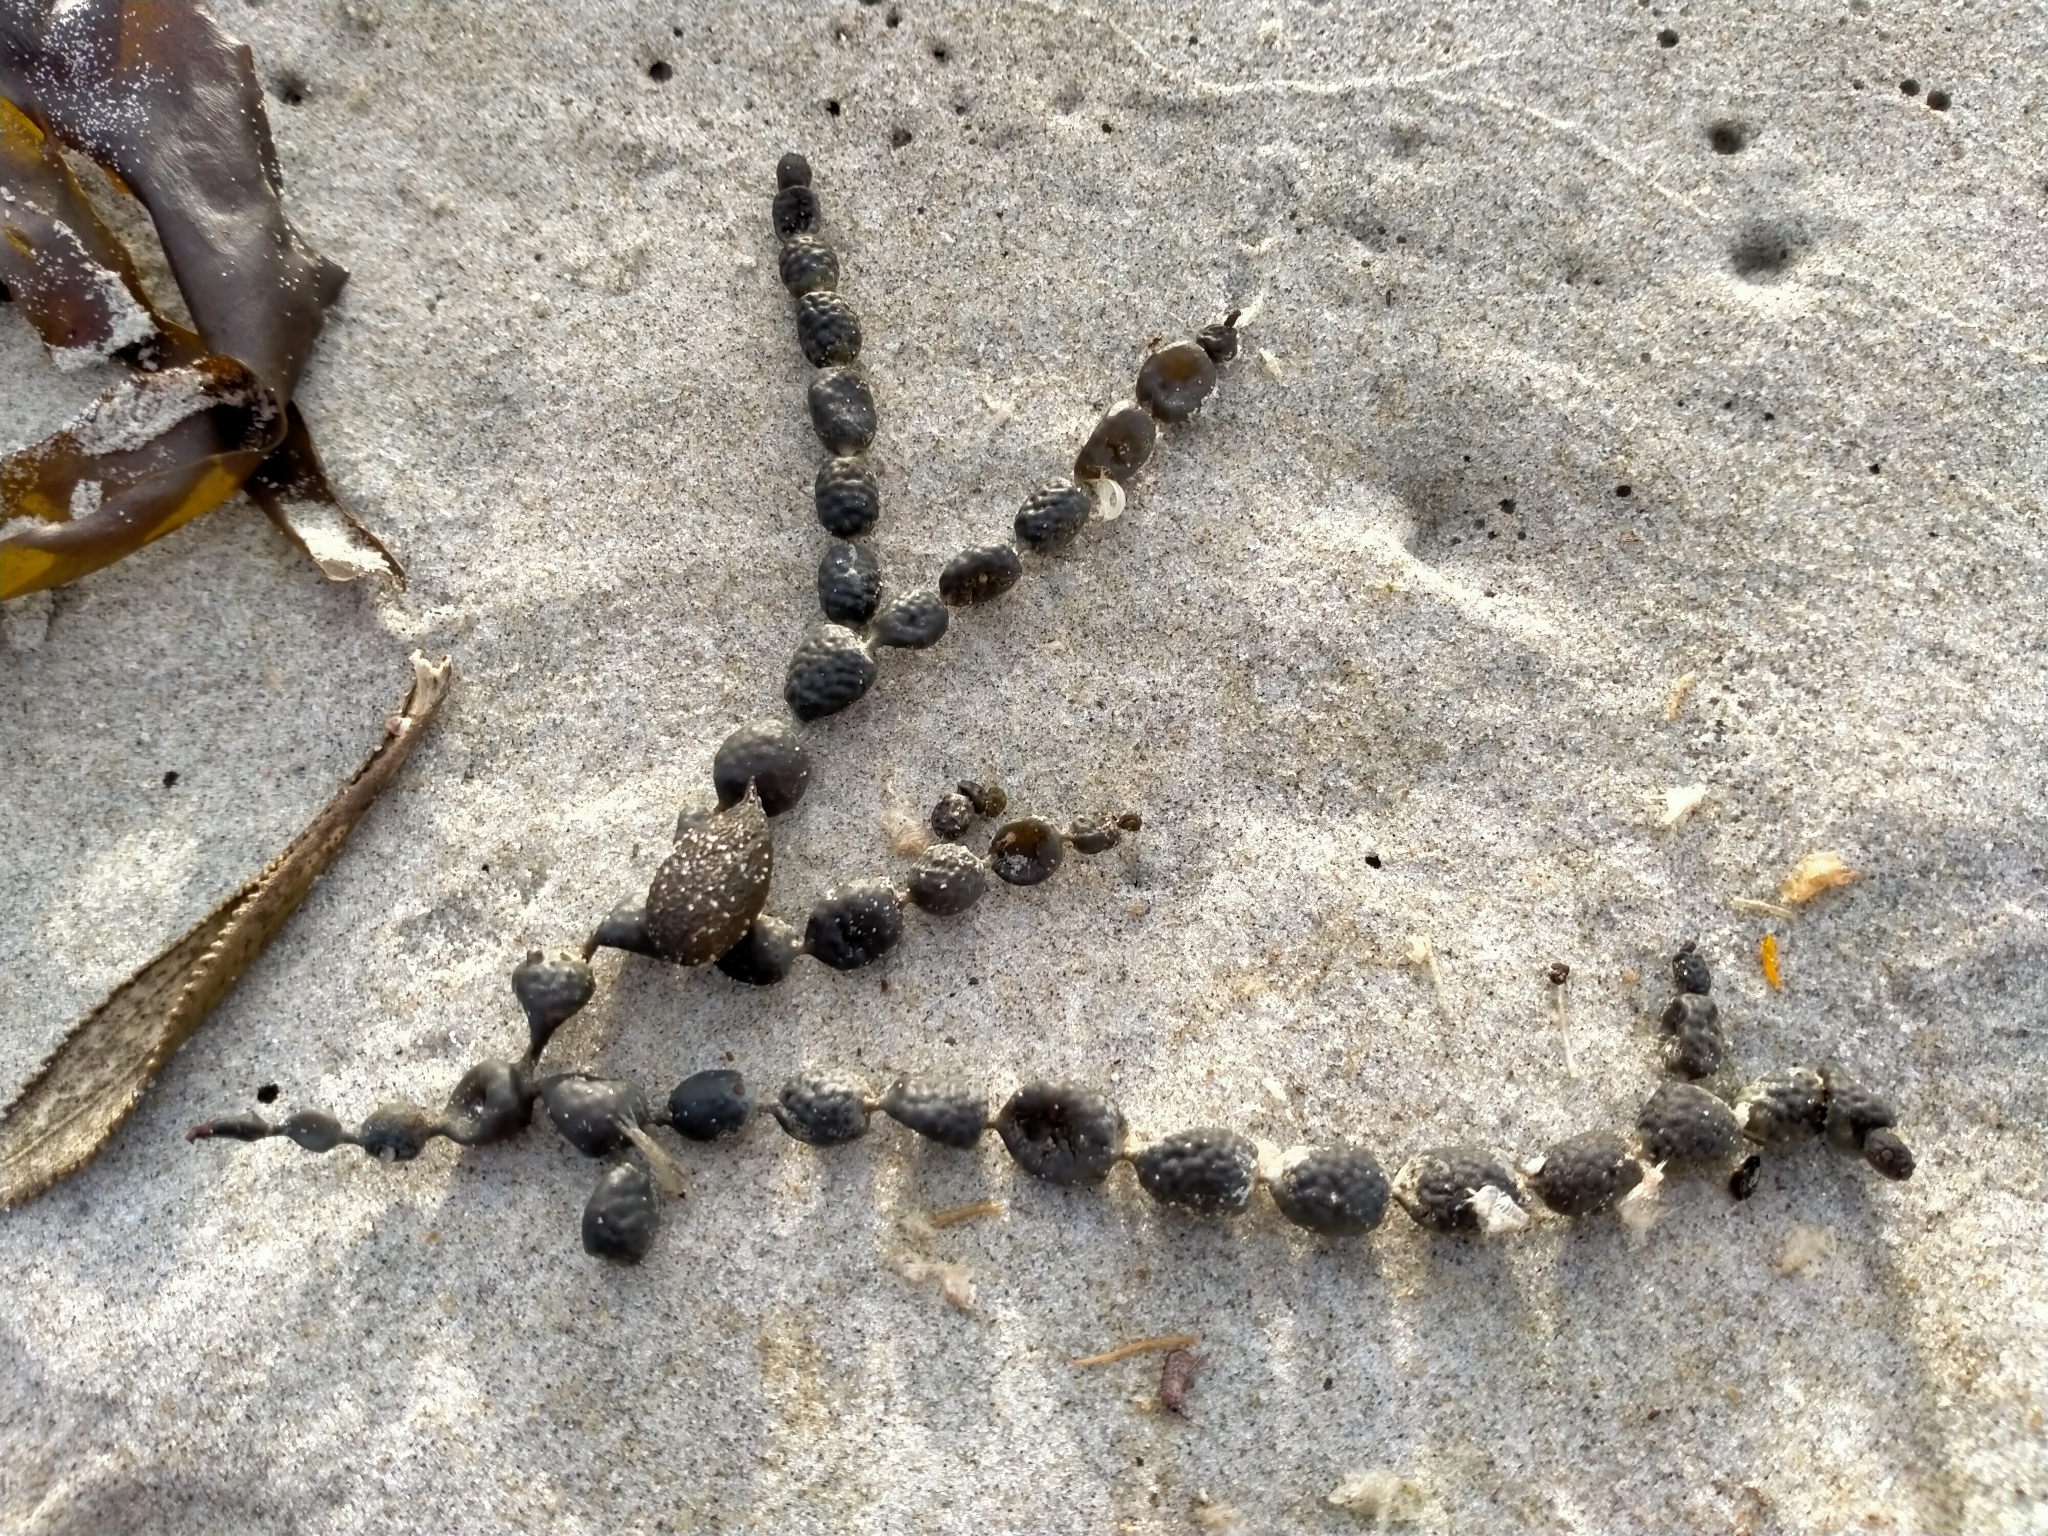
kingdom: Chromista
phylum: Ochrophyta
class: Phaeophyceae
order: Fucales
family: Hormosiraceae
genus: Hormosira
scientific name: Hormosira banksii
